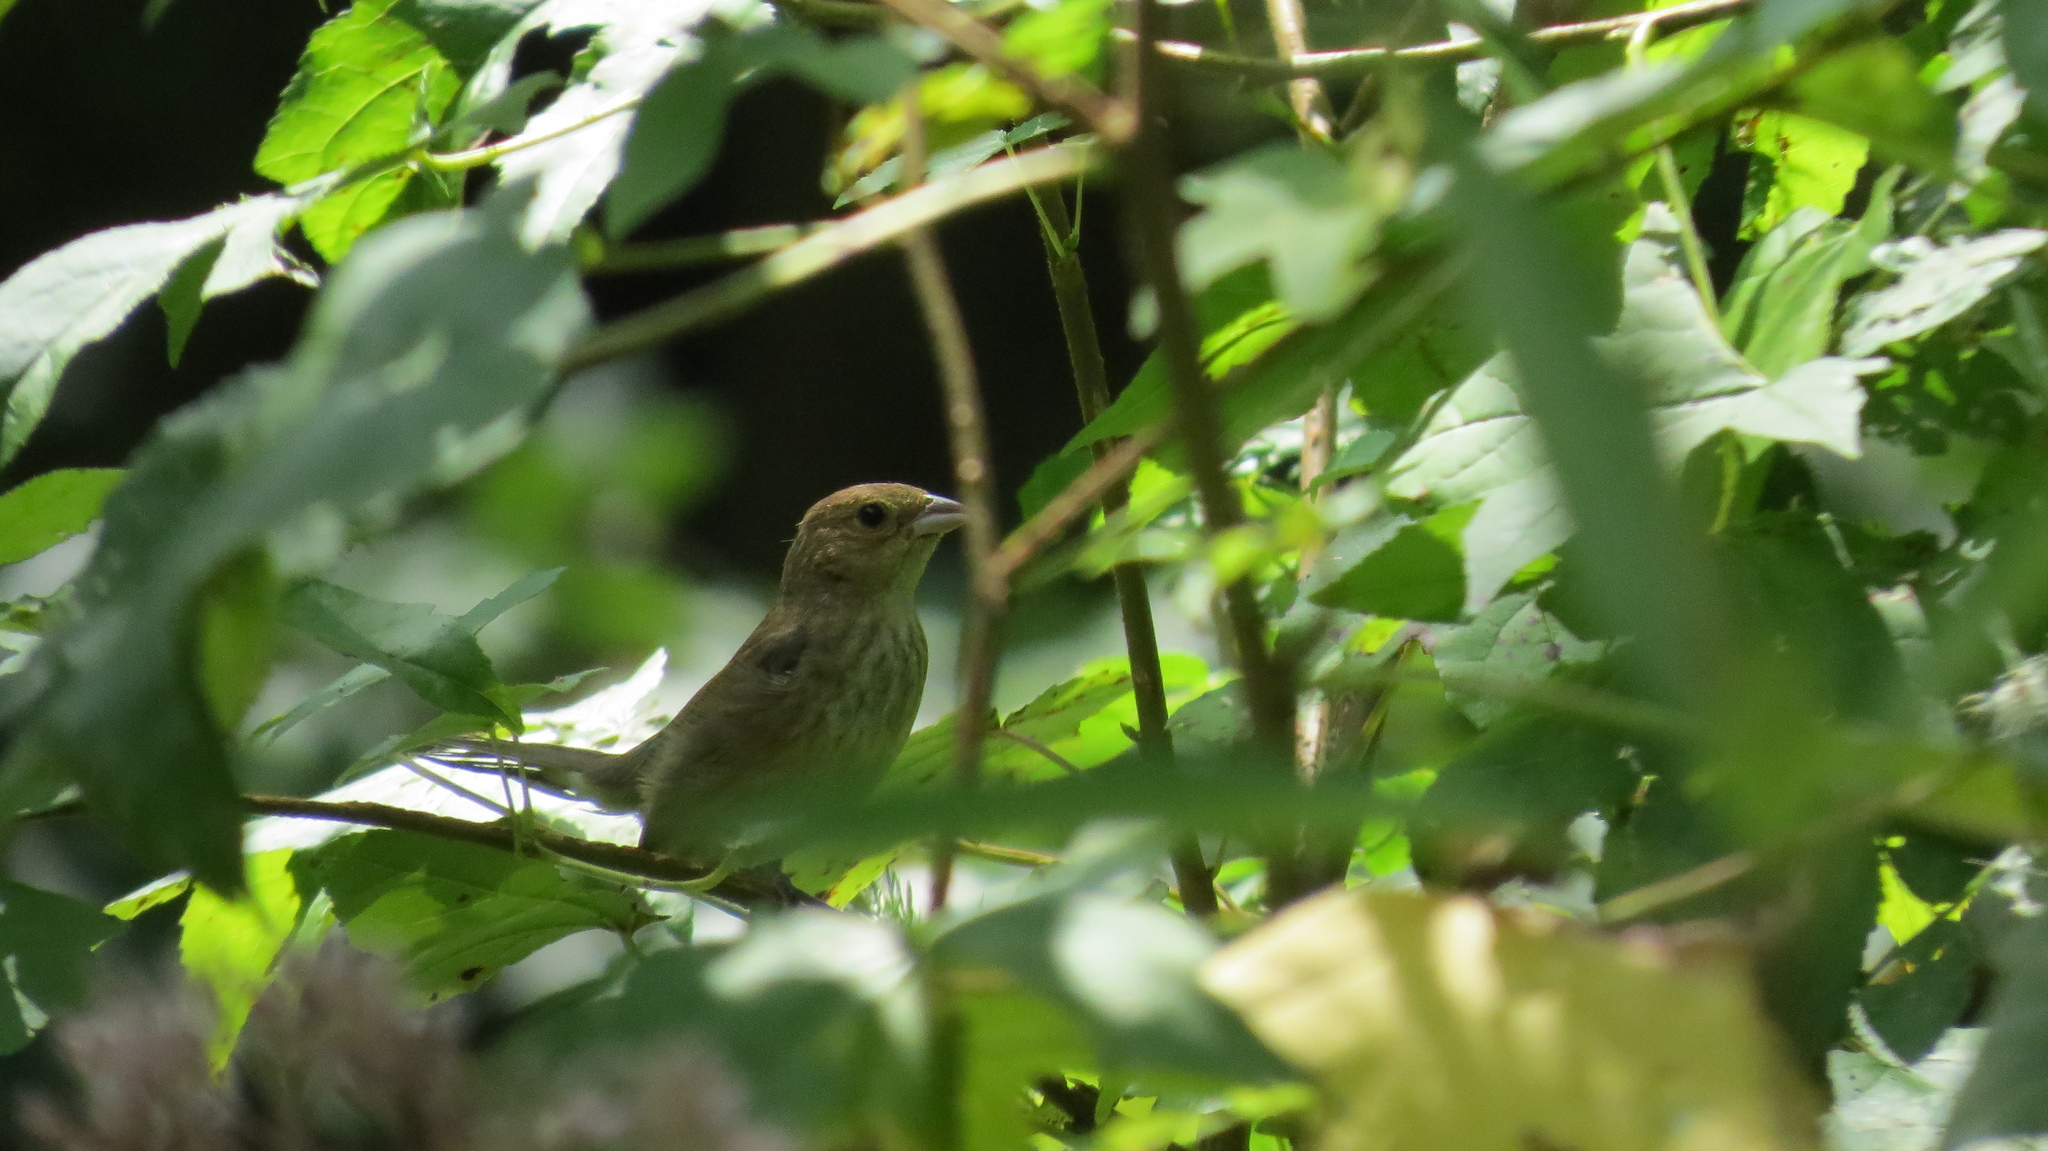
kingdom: Animalia
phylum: Chordata
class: Aves
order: Passeriformes
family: Cardinalidae
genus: Passerina
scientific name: Passerina cyanea
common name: Indigo bunting
